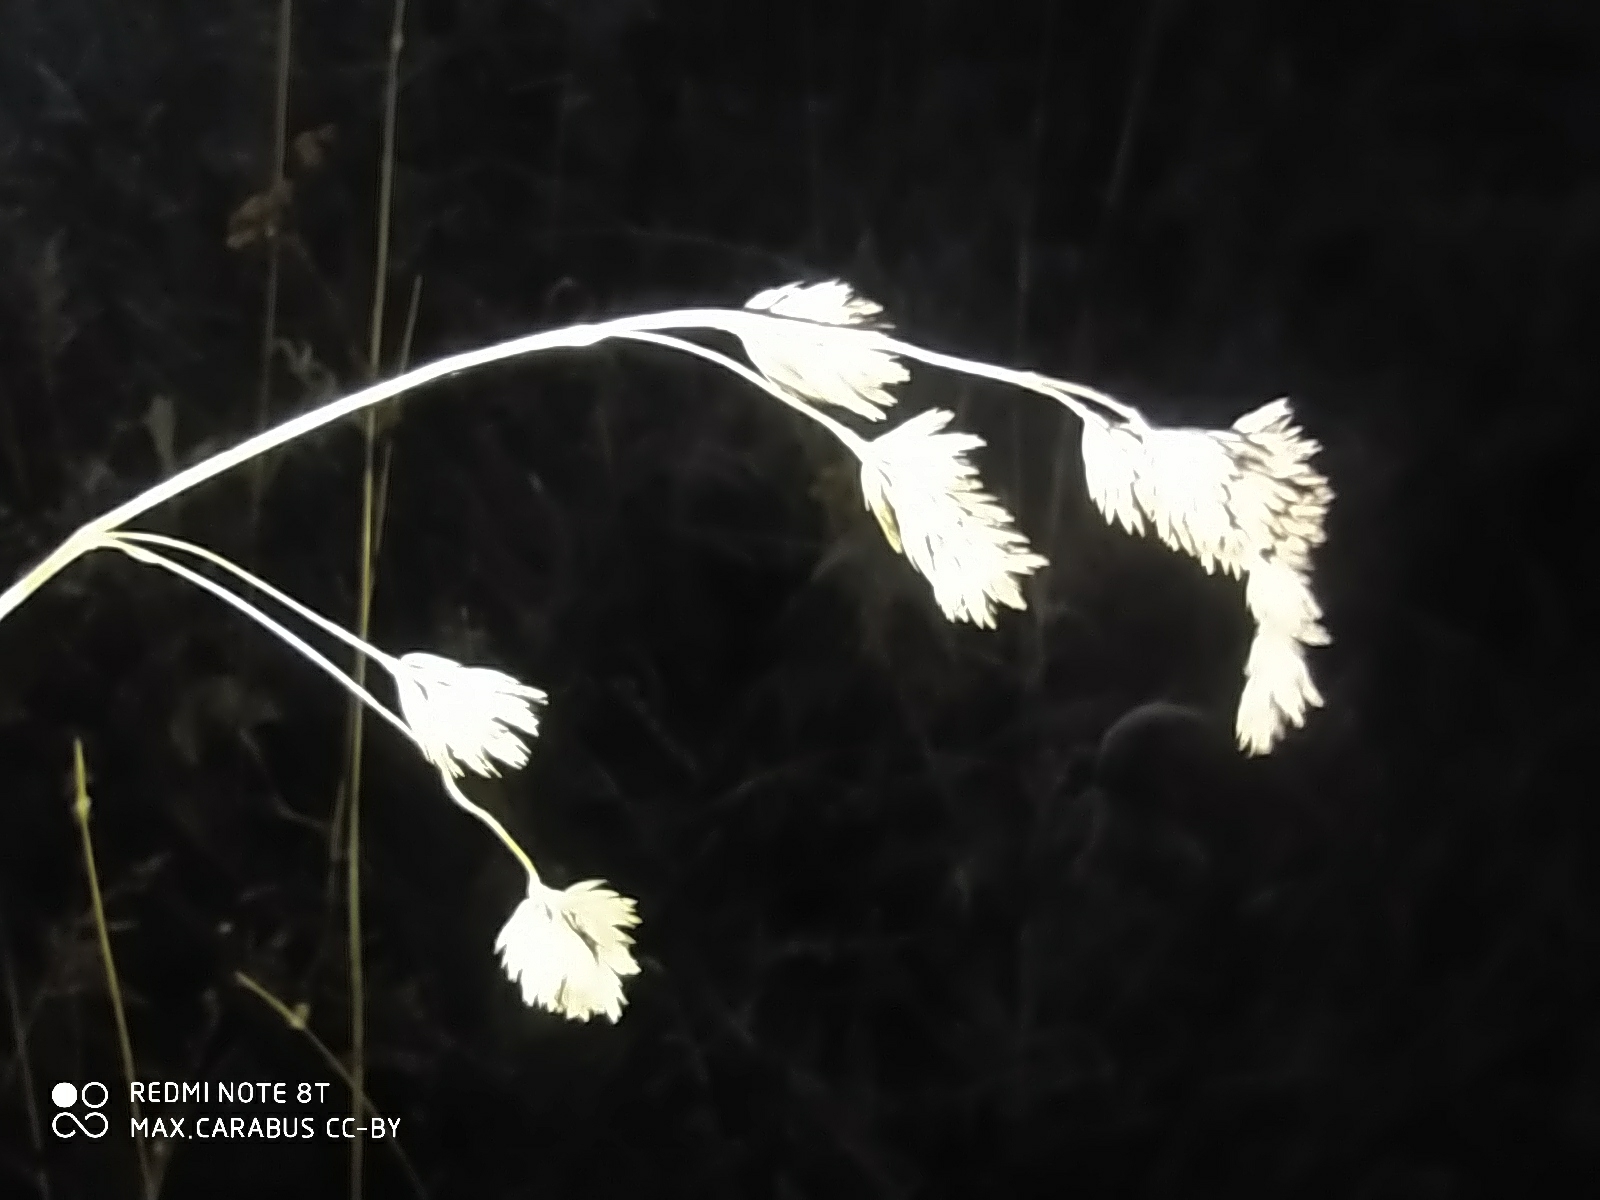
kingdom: Plantae
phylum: Tracheophyta
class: Liliopsida
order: Poales
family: Poaceae
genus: Dactylis
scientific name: Dactylis glomerata
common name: Orchardgrass
